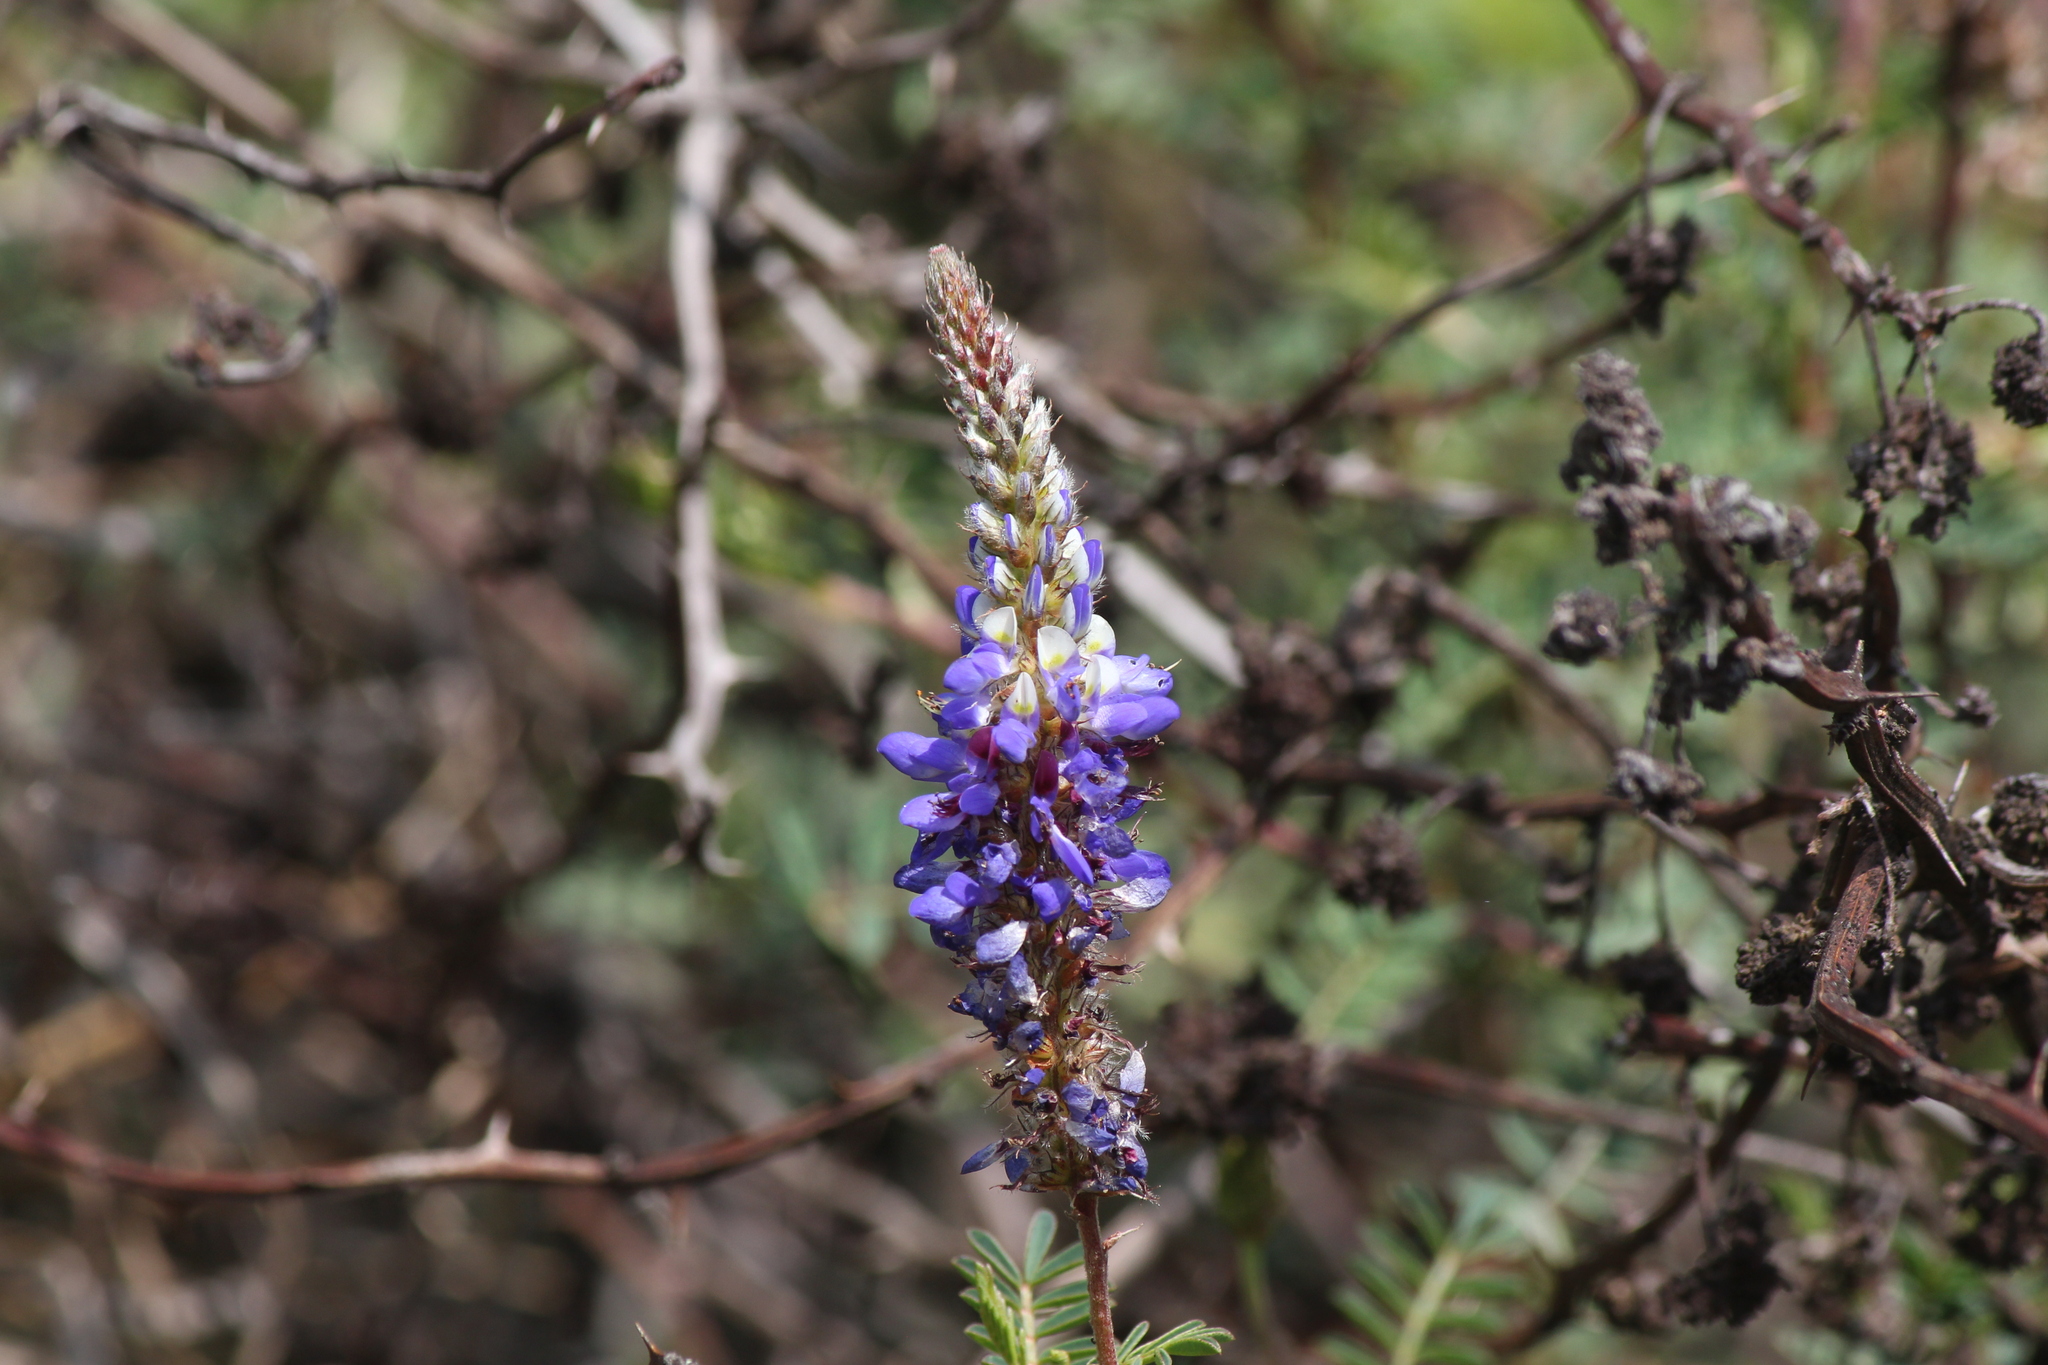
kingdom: Plantae
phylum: Tracheophyta
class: Magnoliopsida
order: Fabales
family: Fabaceae
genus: Dalea
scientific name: Dalea coerulea
